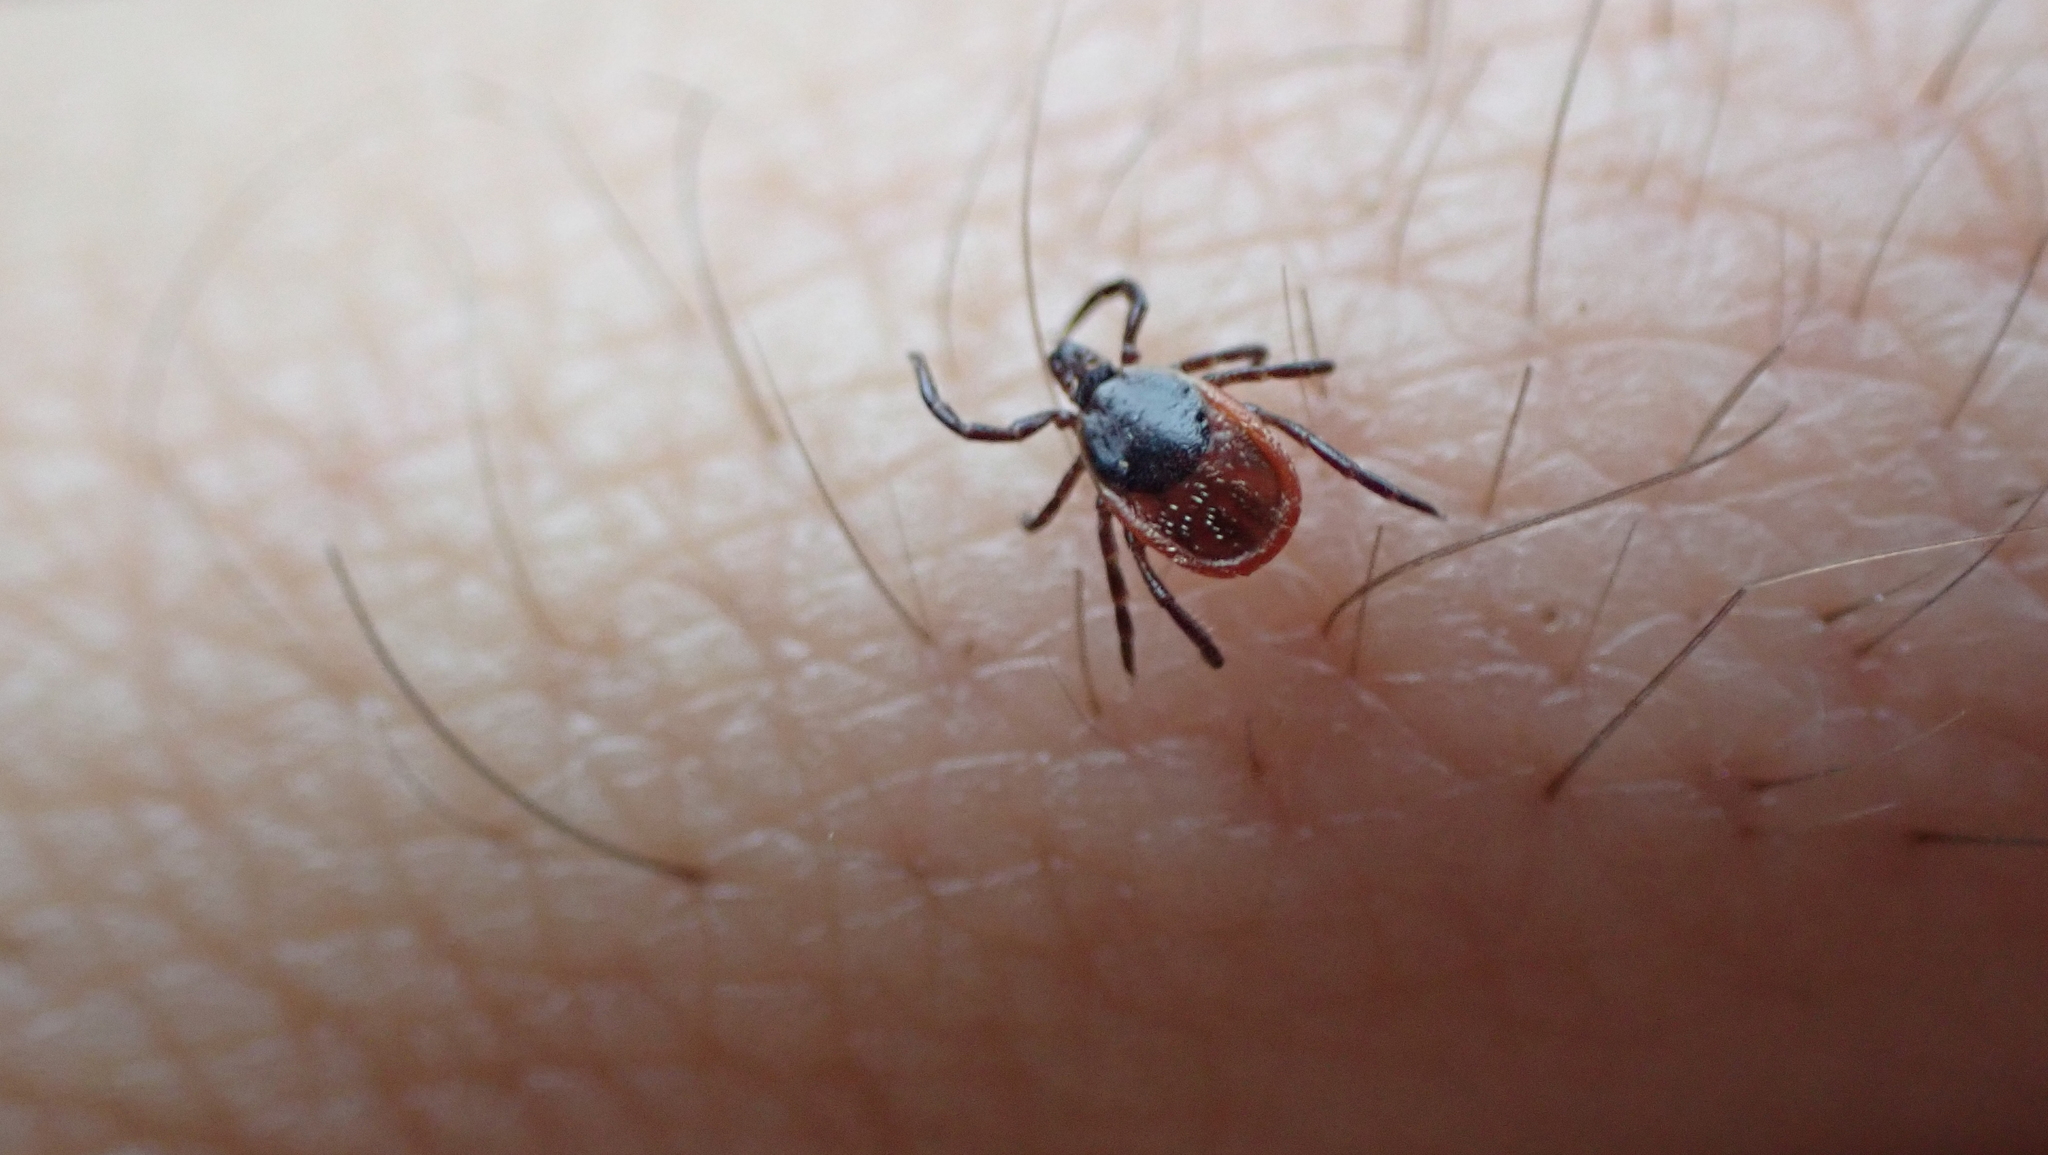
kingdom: Animalia
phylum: Arthropoda
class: Arachnida
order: Ixodida
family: Ixodidae
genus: Ixodes
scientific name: Ixodes scapularis
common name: Black legged tick
